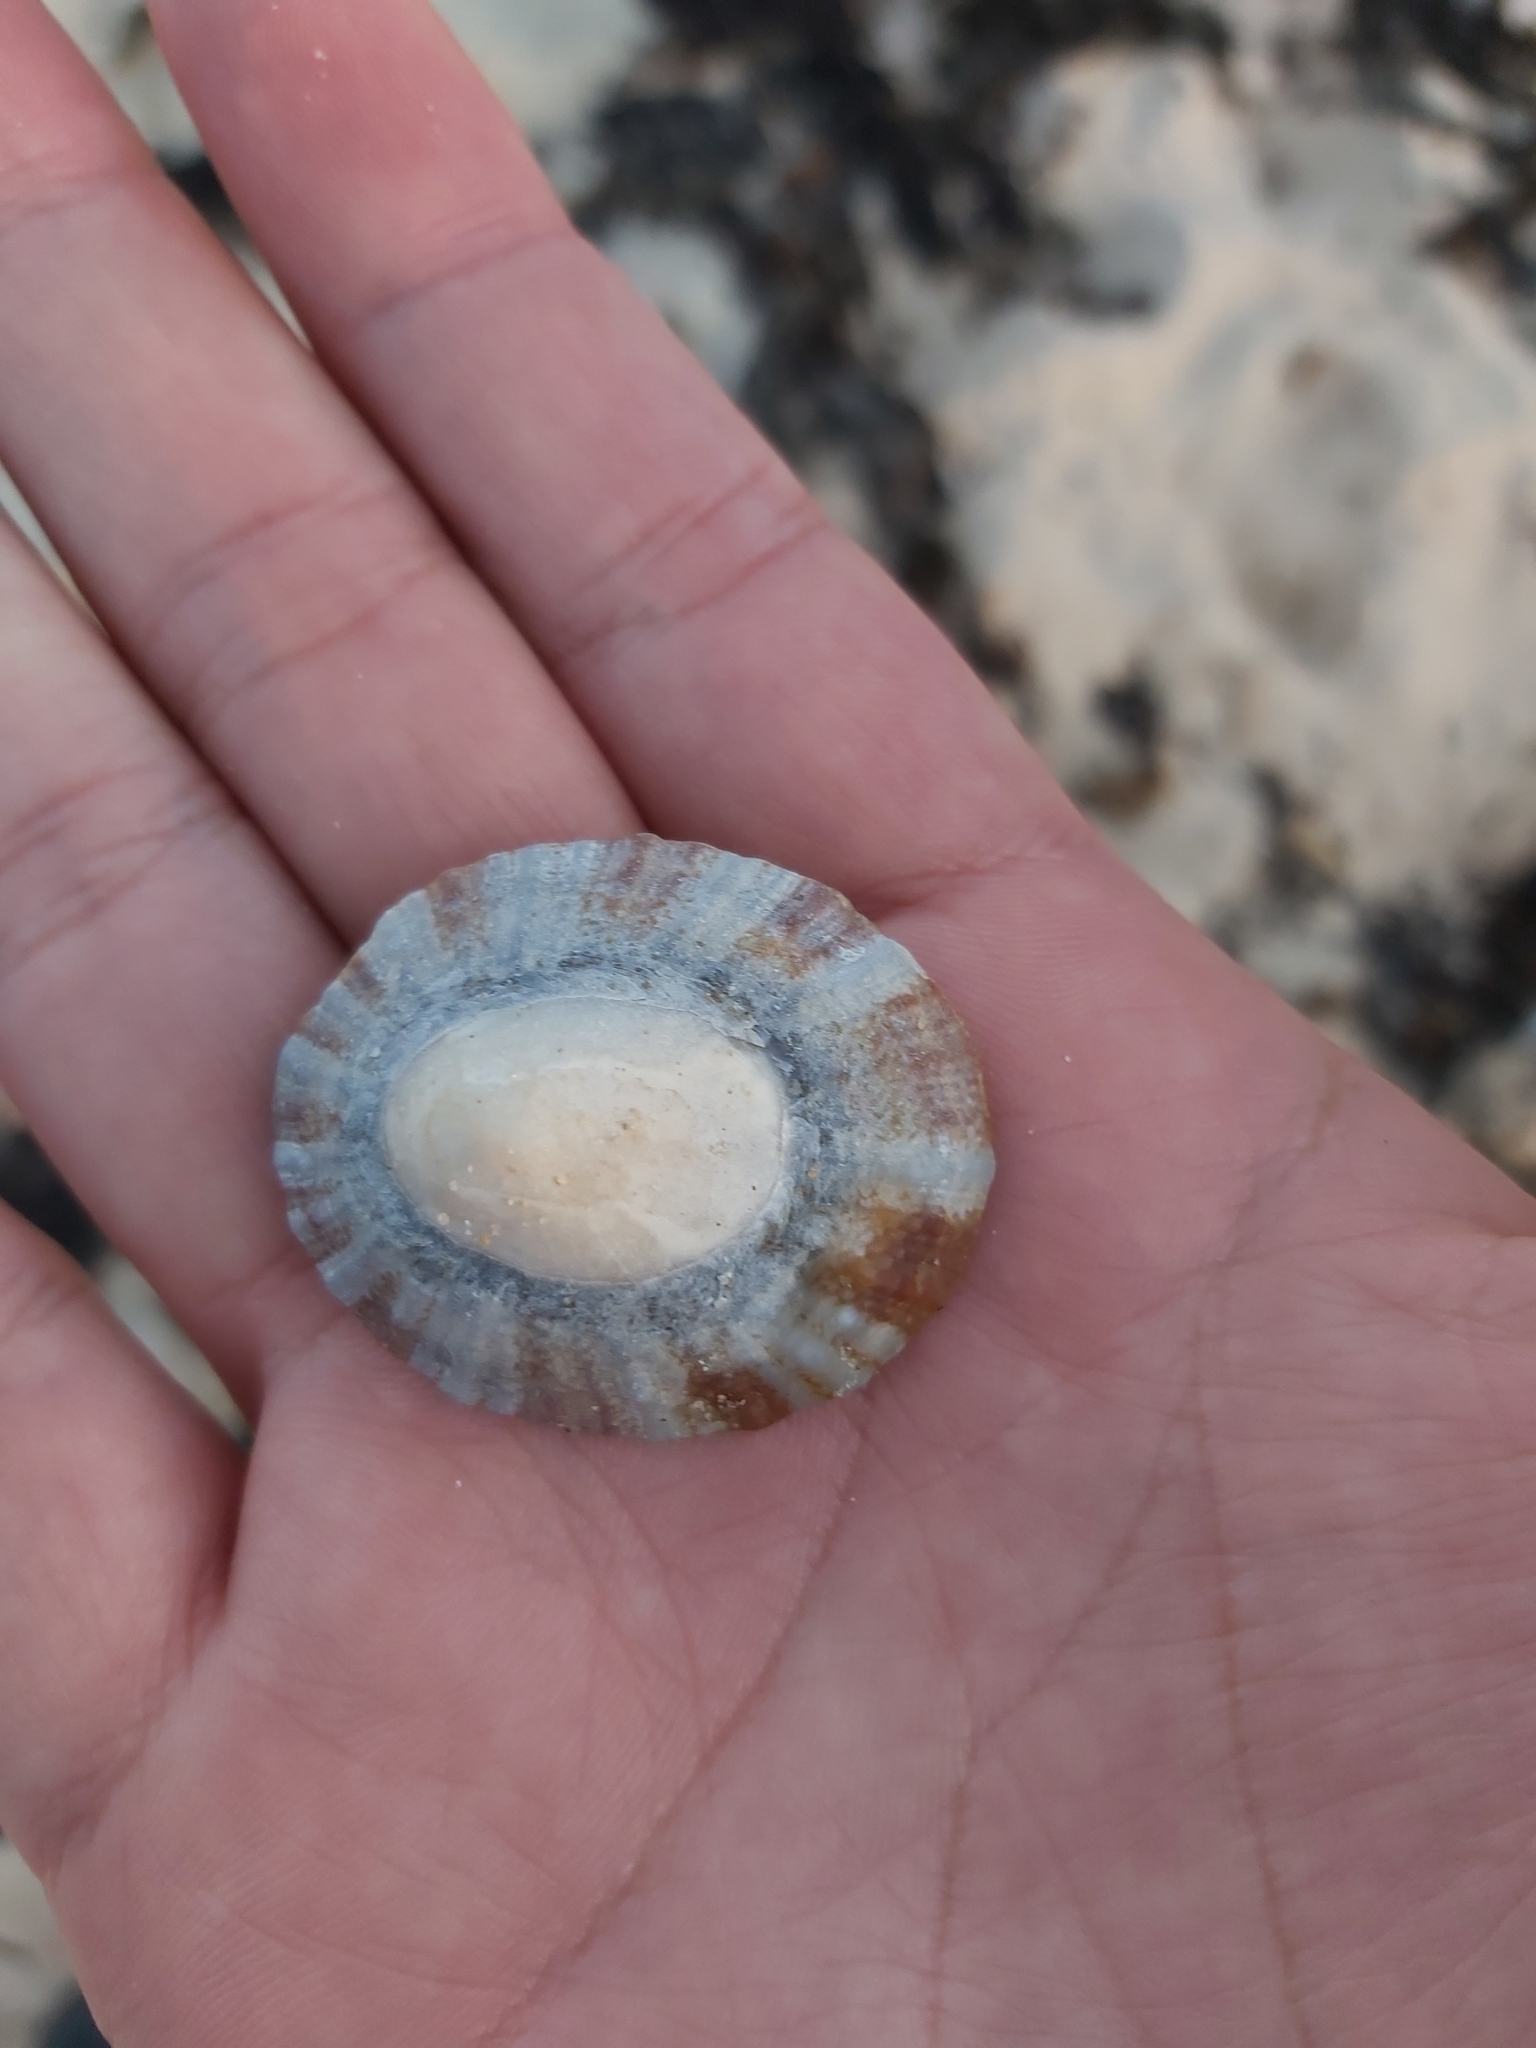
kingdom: Animalia
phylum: Mollusca
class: Gastropoda
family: Nacellidae
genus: Cellana
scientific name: Cellana tramoserica
